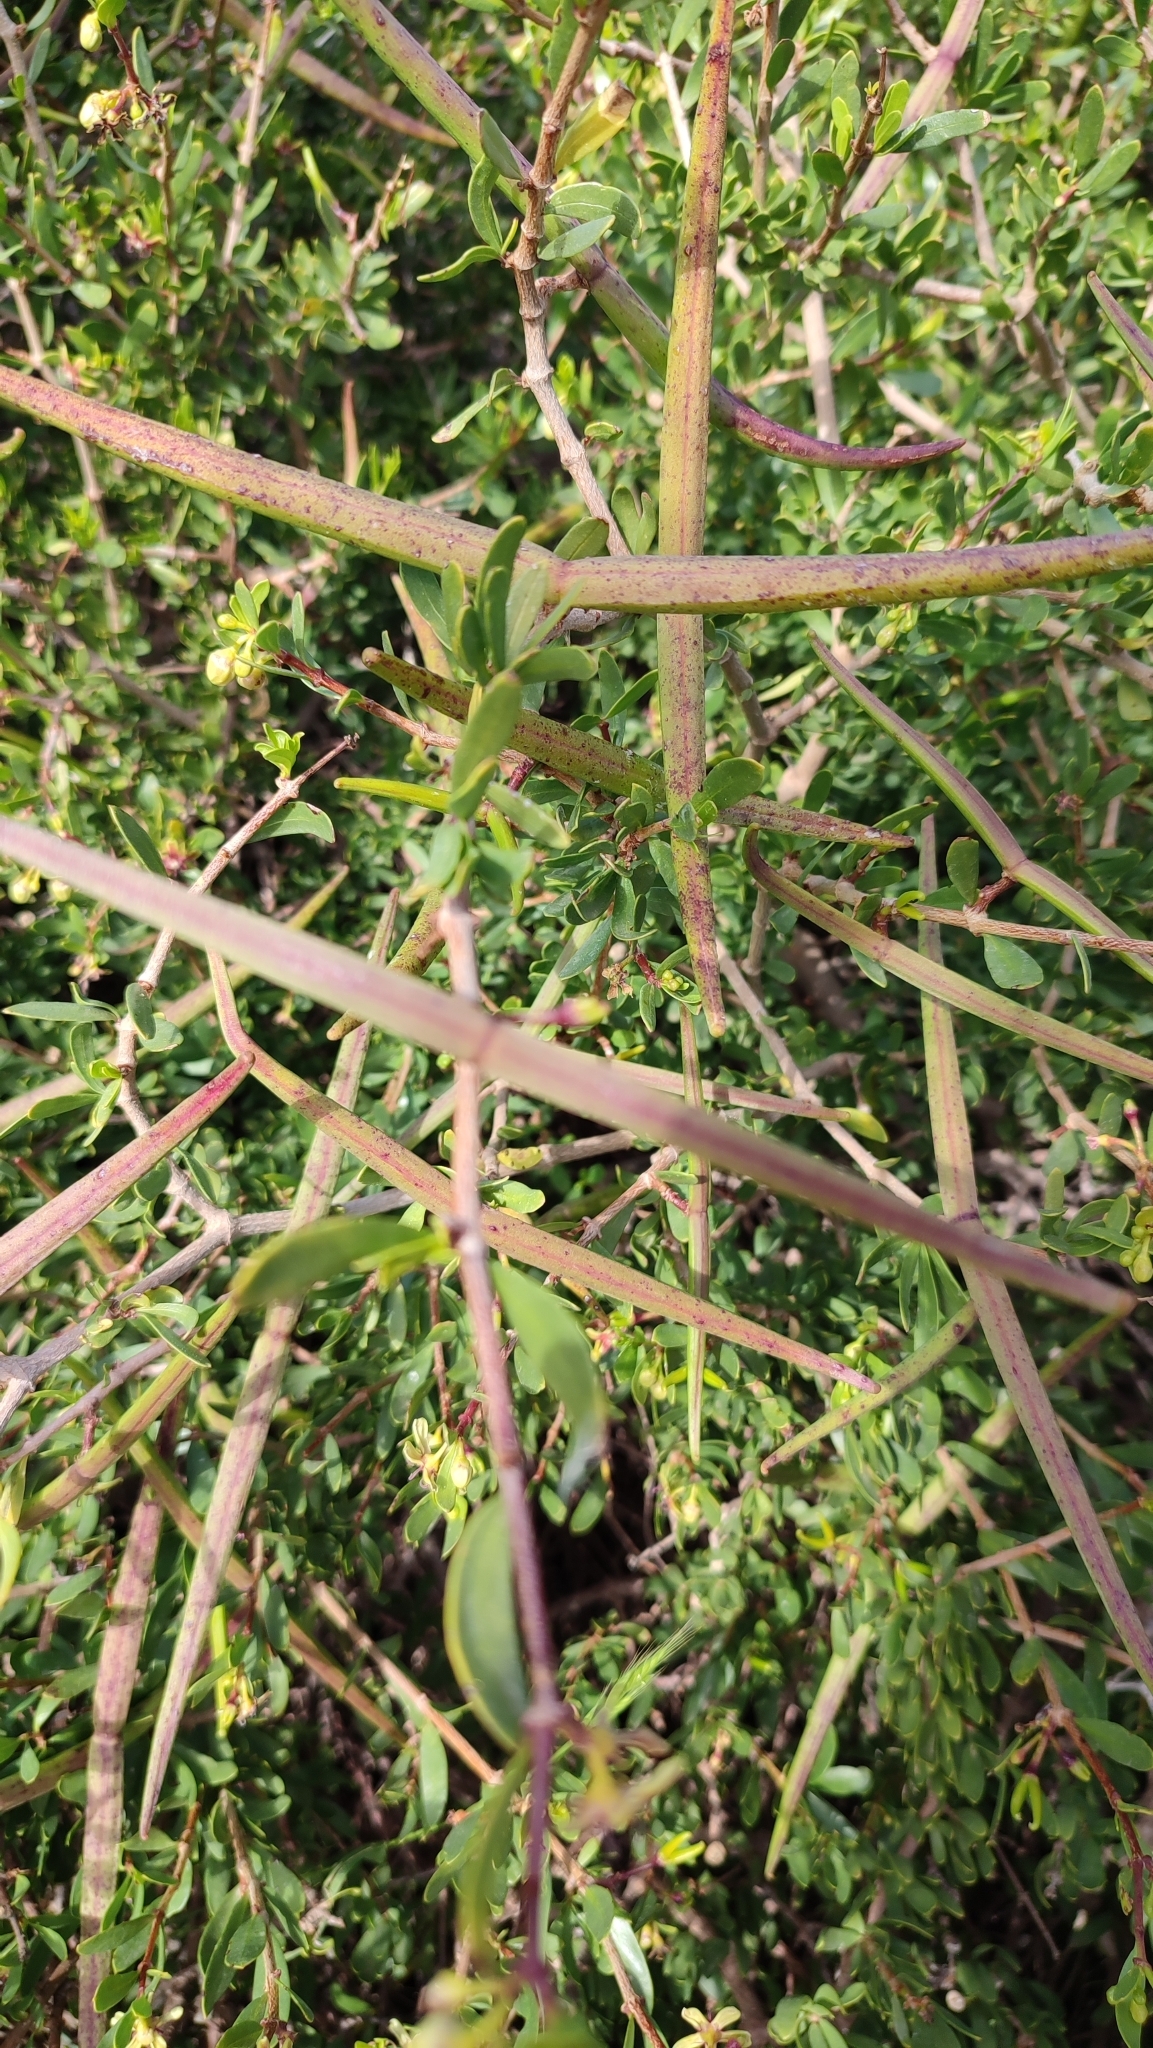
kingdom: Plantae
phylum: Tracheophyta
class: Magnoliopsida
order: Gentianales
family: Apocynaceae
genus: Periploca
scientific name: Periploca laevigata
